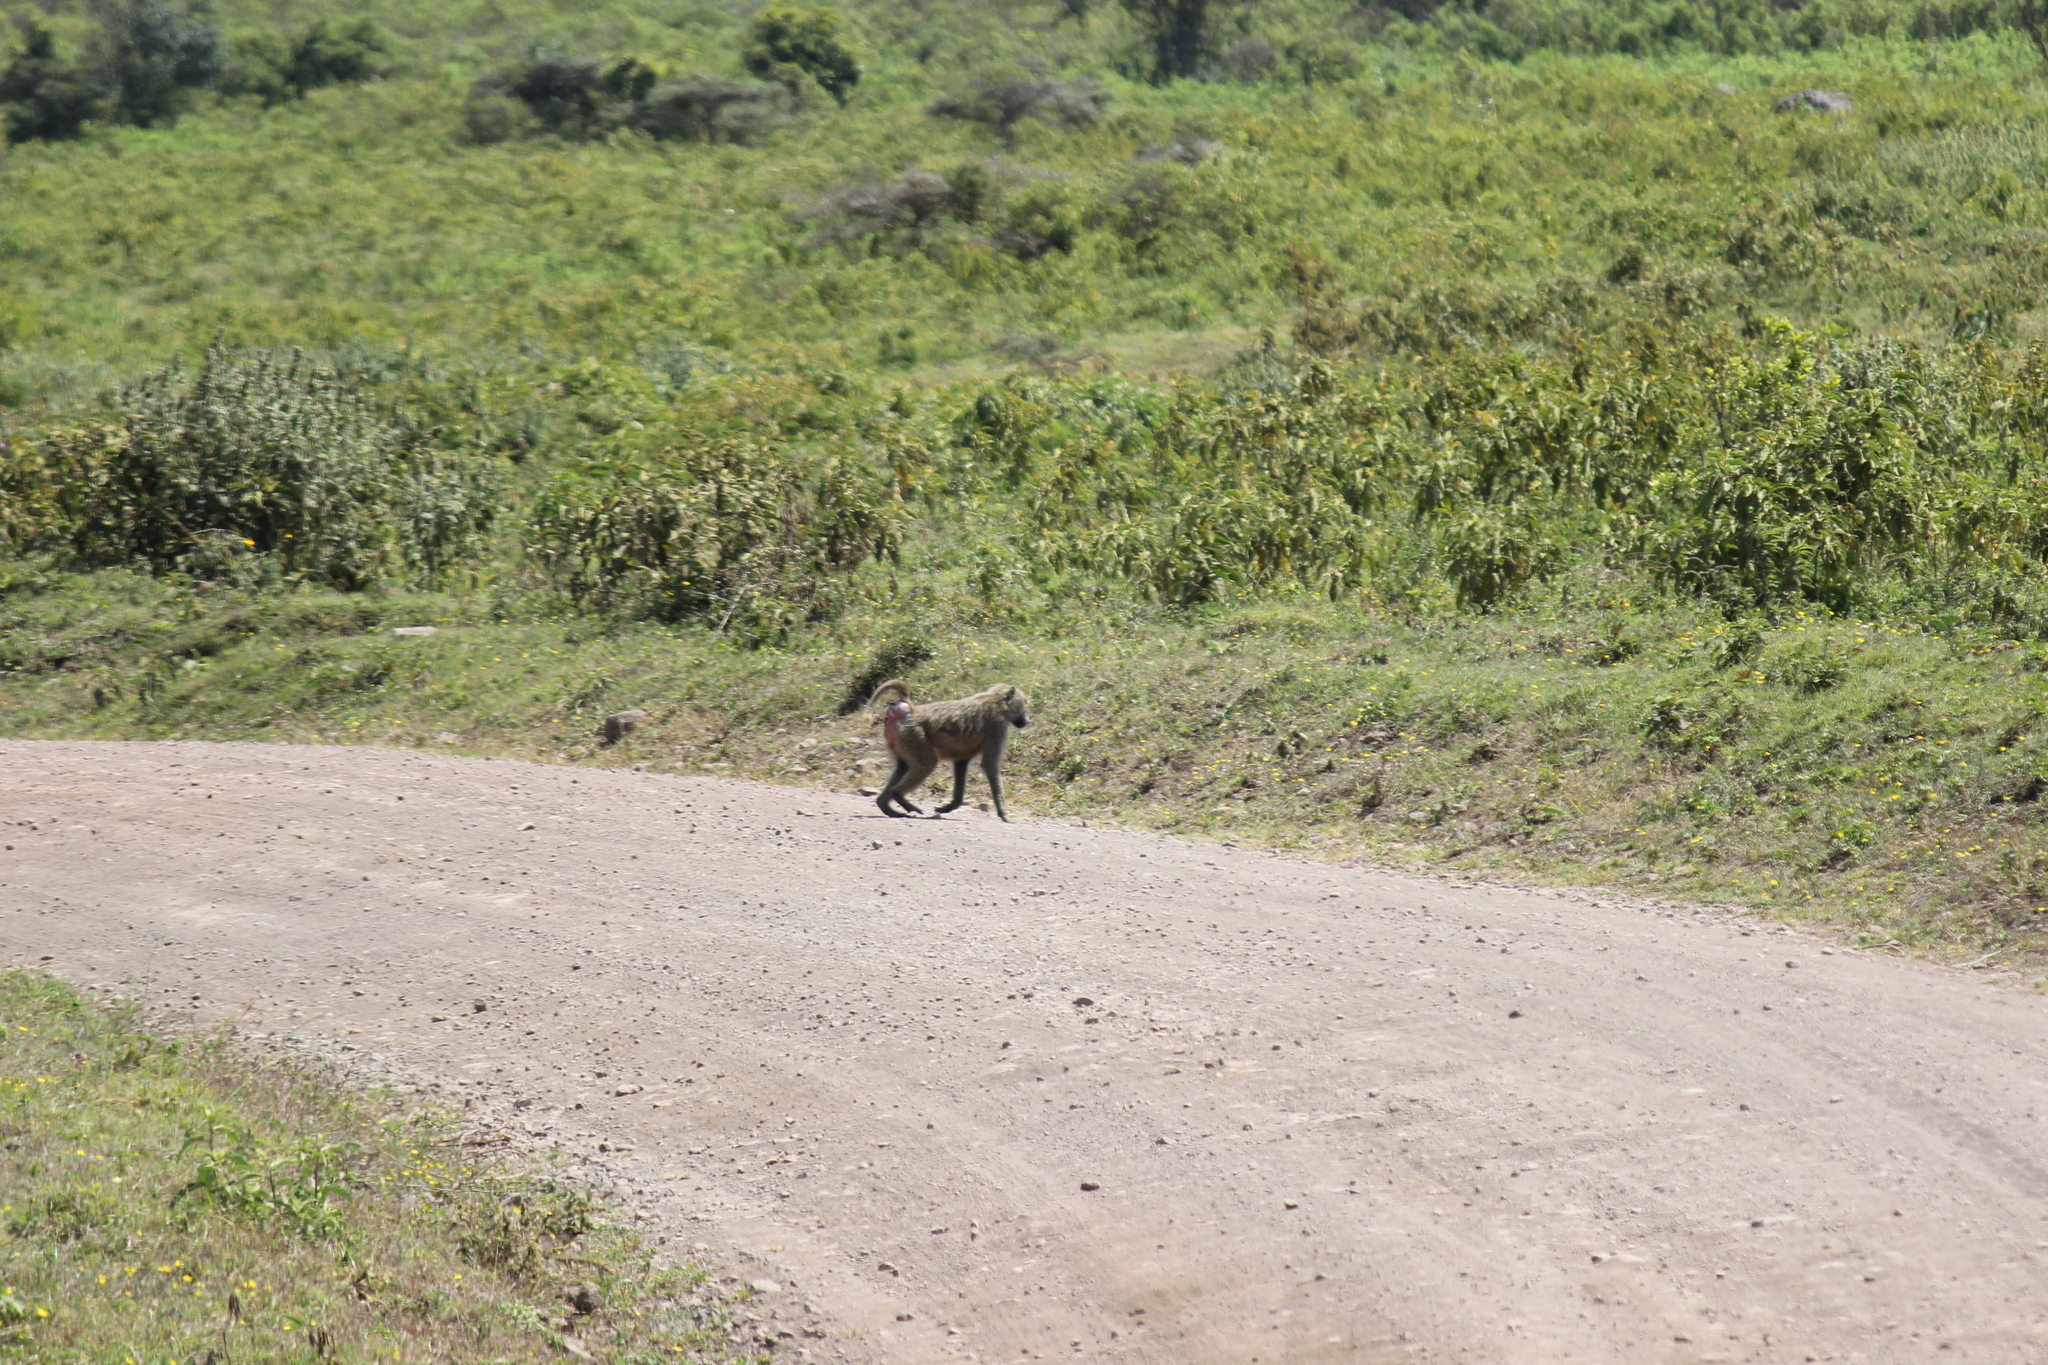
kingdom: Animalia
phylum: Chordata
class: Mammalia
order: Primates
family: Cercopithecidae
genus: Papio
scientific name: Papio anubis
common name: Olive baboon
